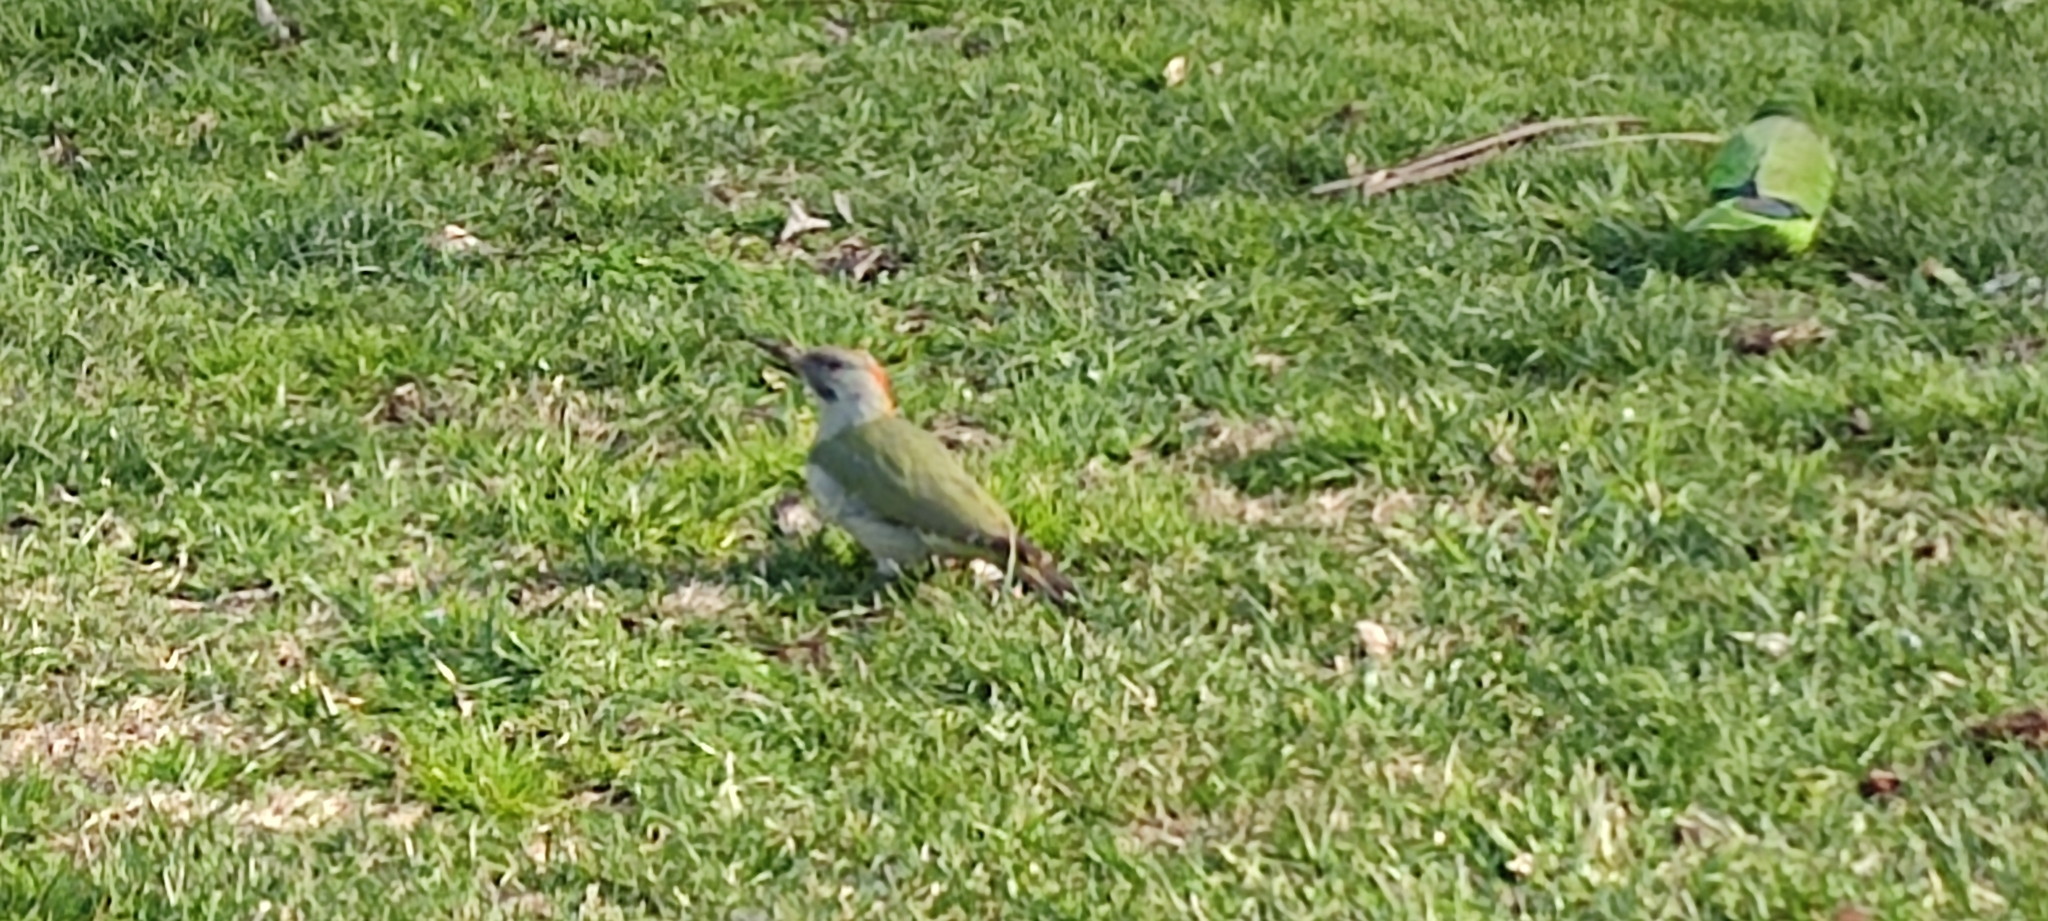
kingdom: Animalia
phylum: Chordata
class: Aves
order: Piciformes
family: Picidae
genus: Picus
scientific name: Picus sharpei
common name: Iberian green woodpecker
